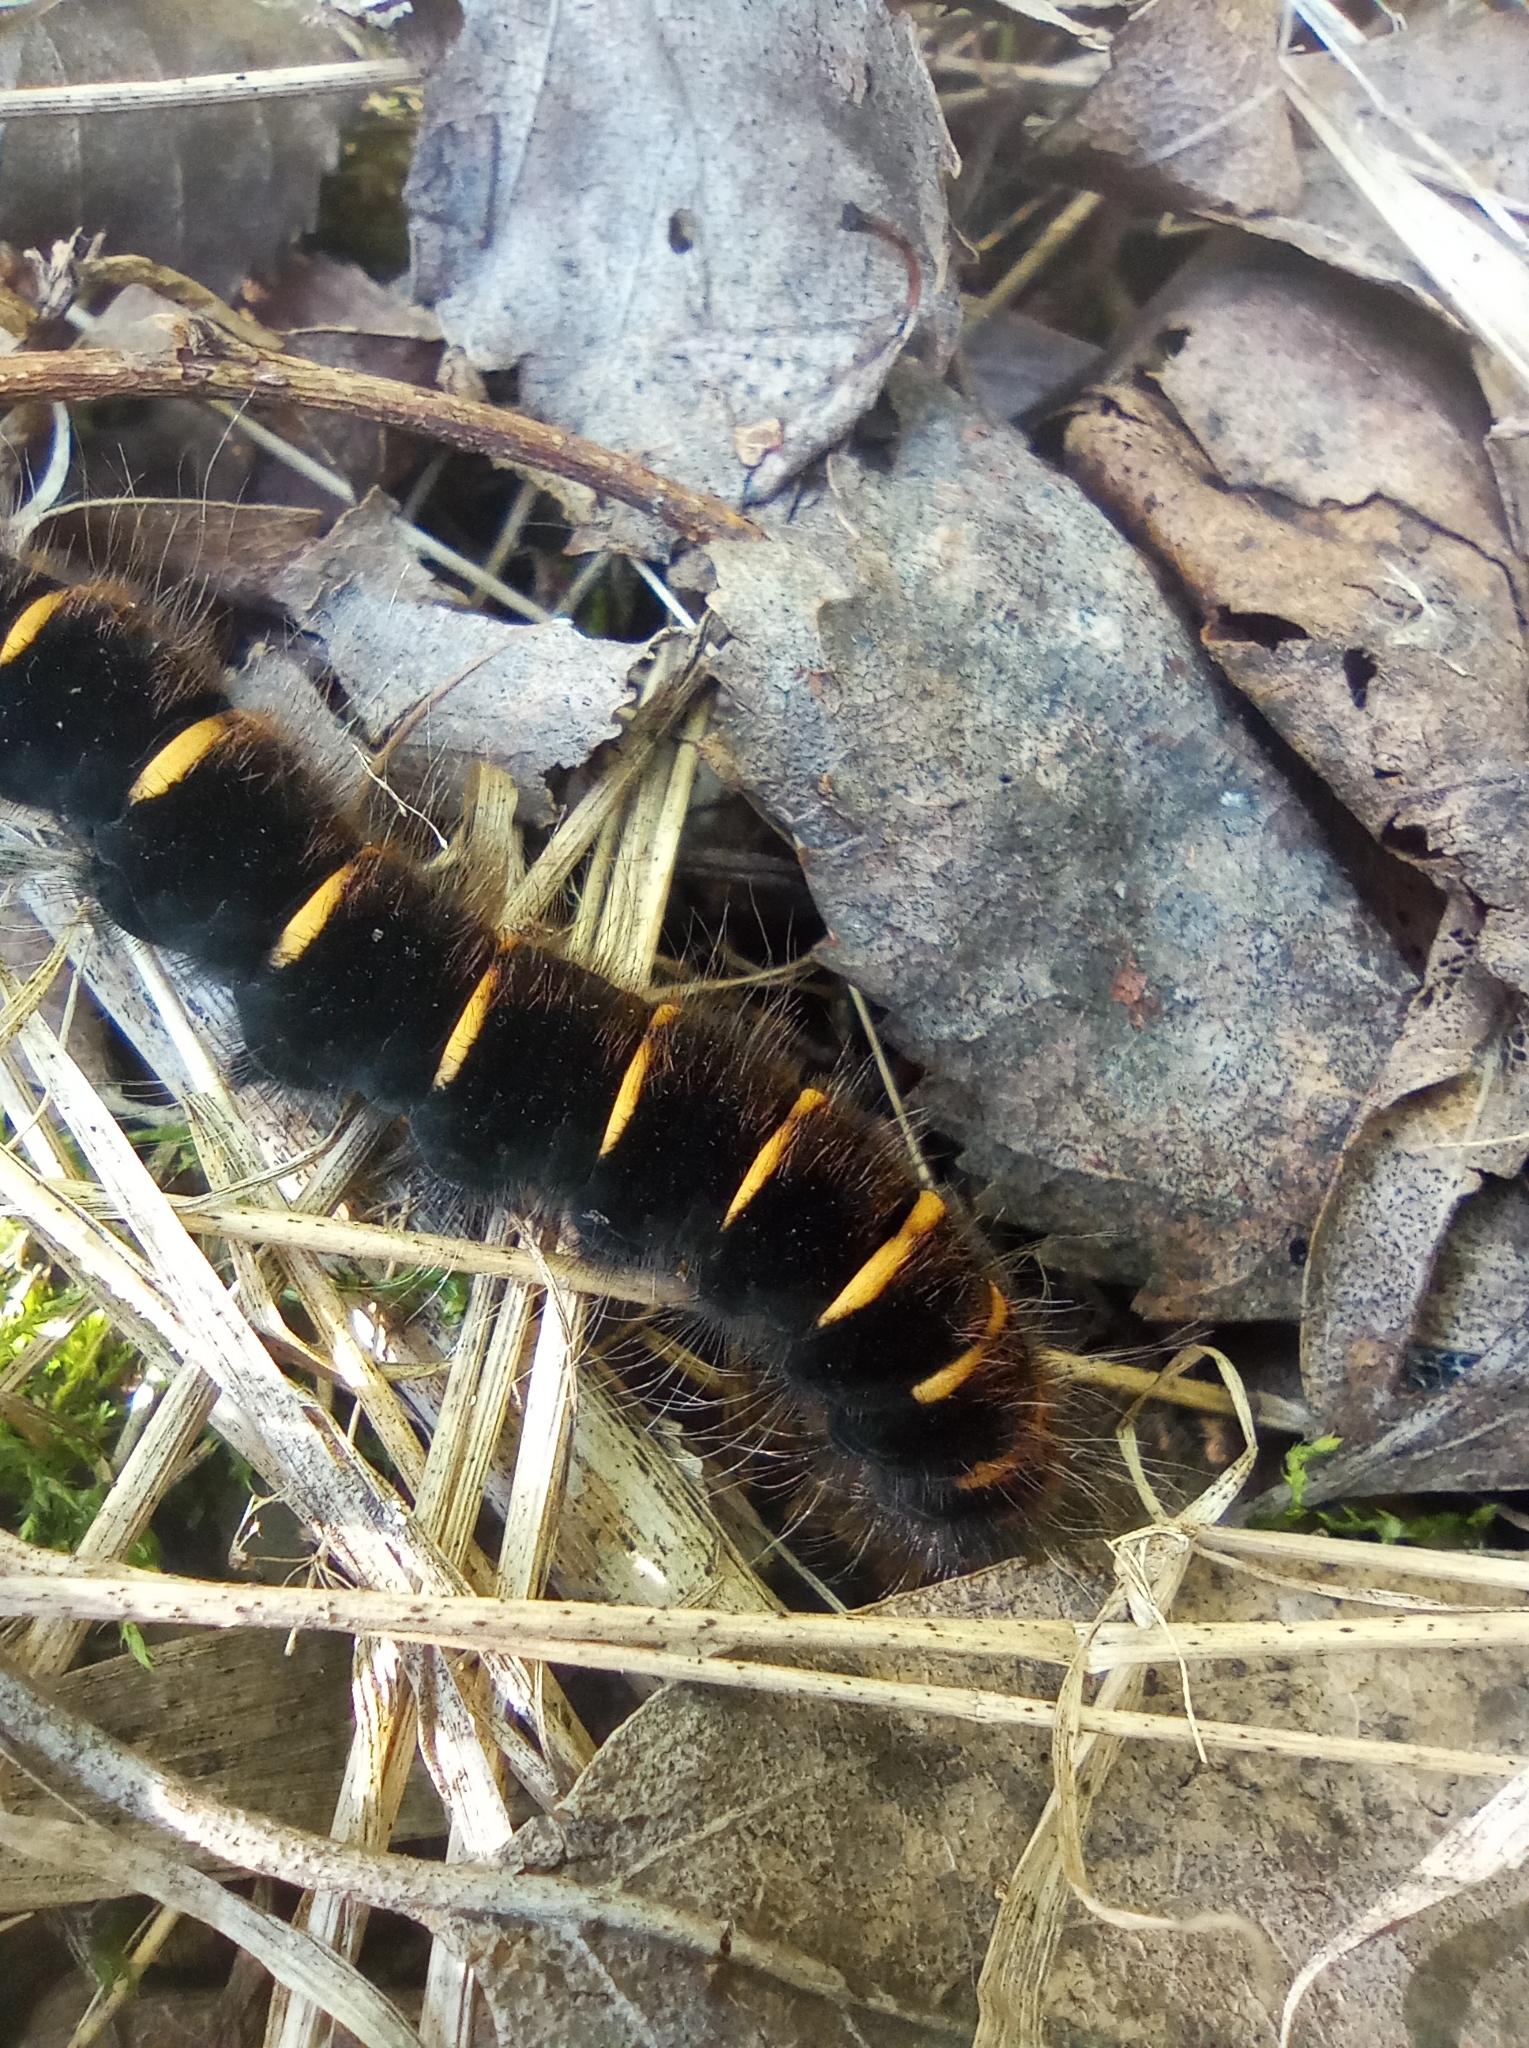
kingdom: Animalia
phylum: Arthropoda
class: Insecta
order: Lepidoptera
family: Lasiocampidae
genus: Macrothylacia
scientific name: Macrothylacia rubi
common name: Fox moth
